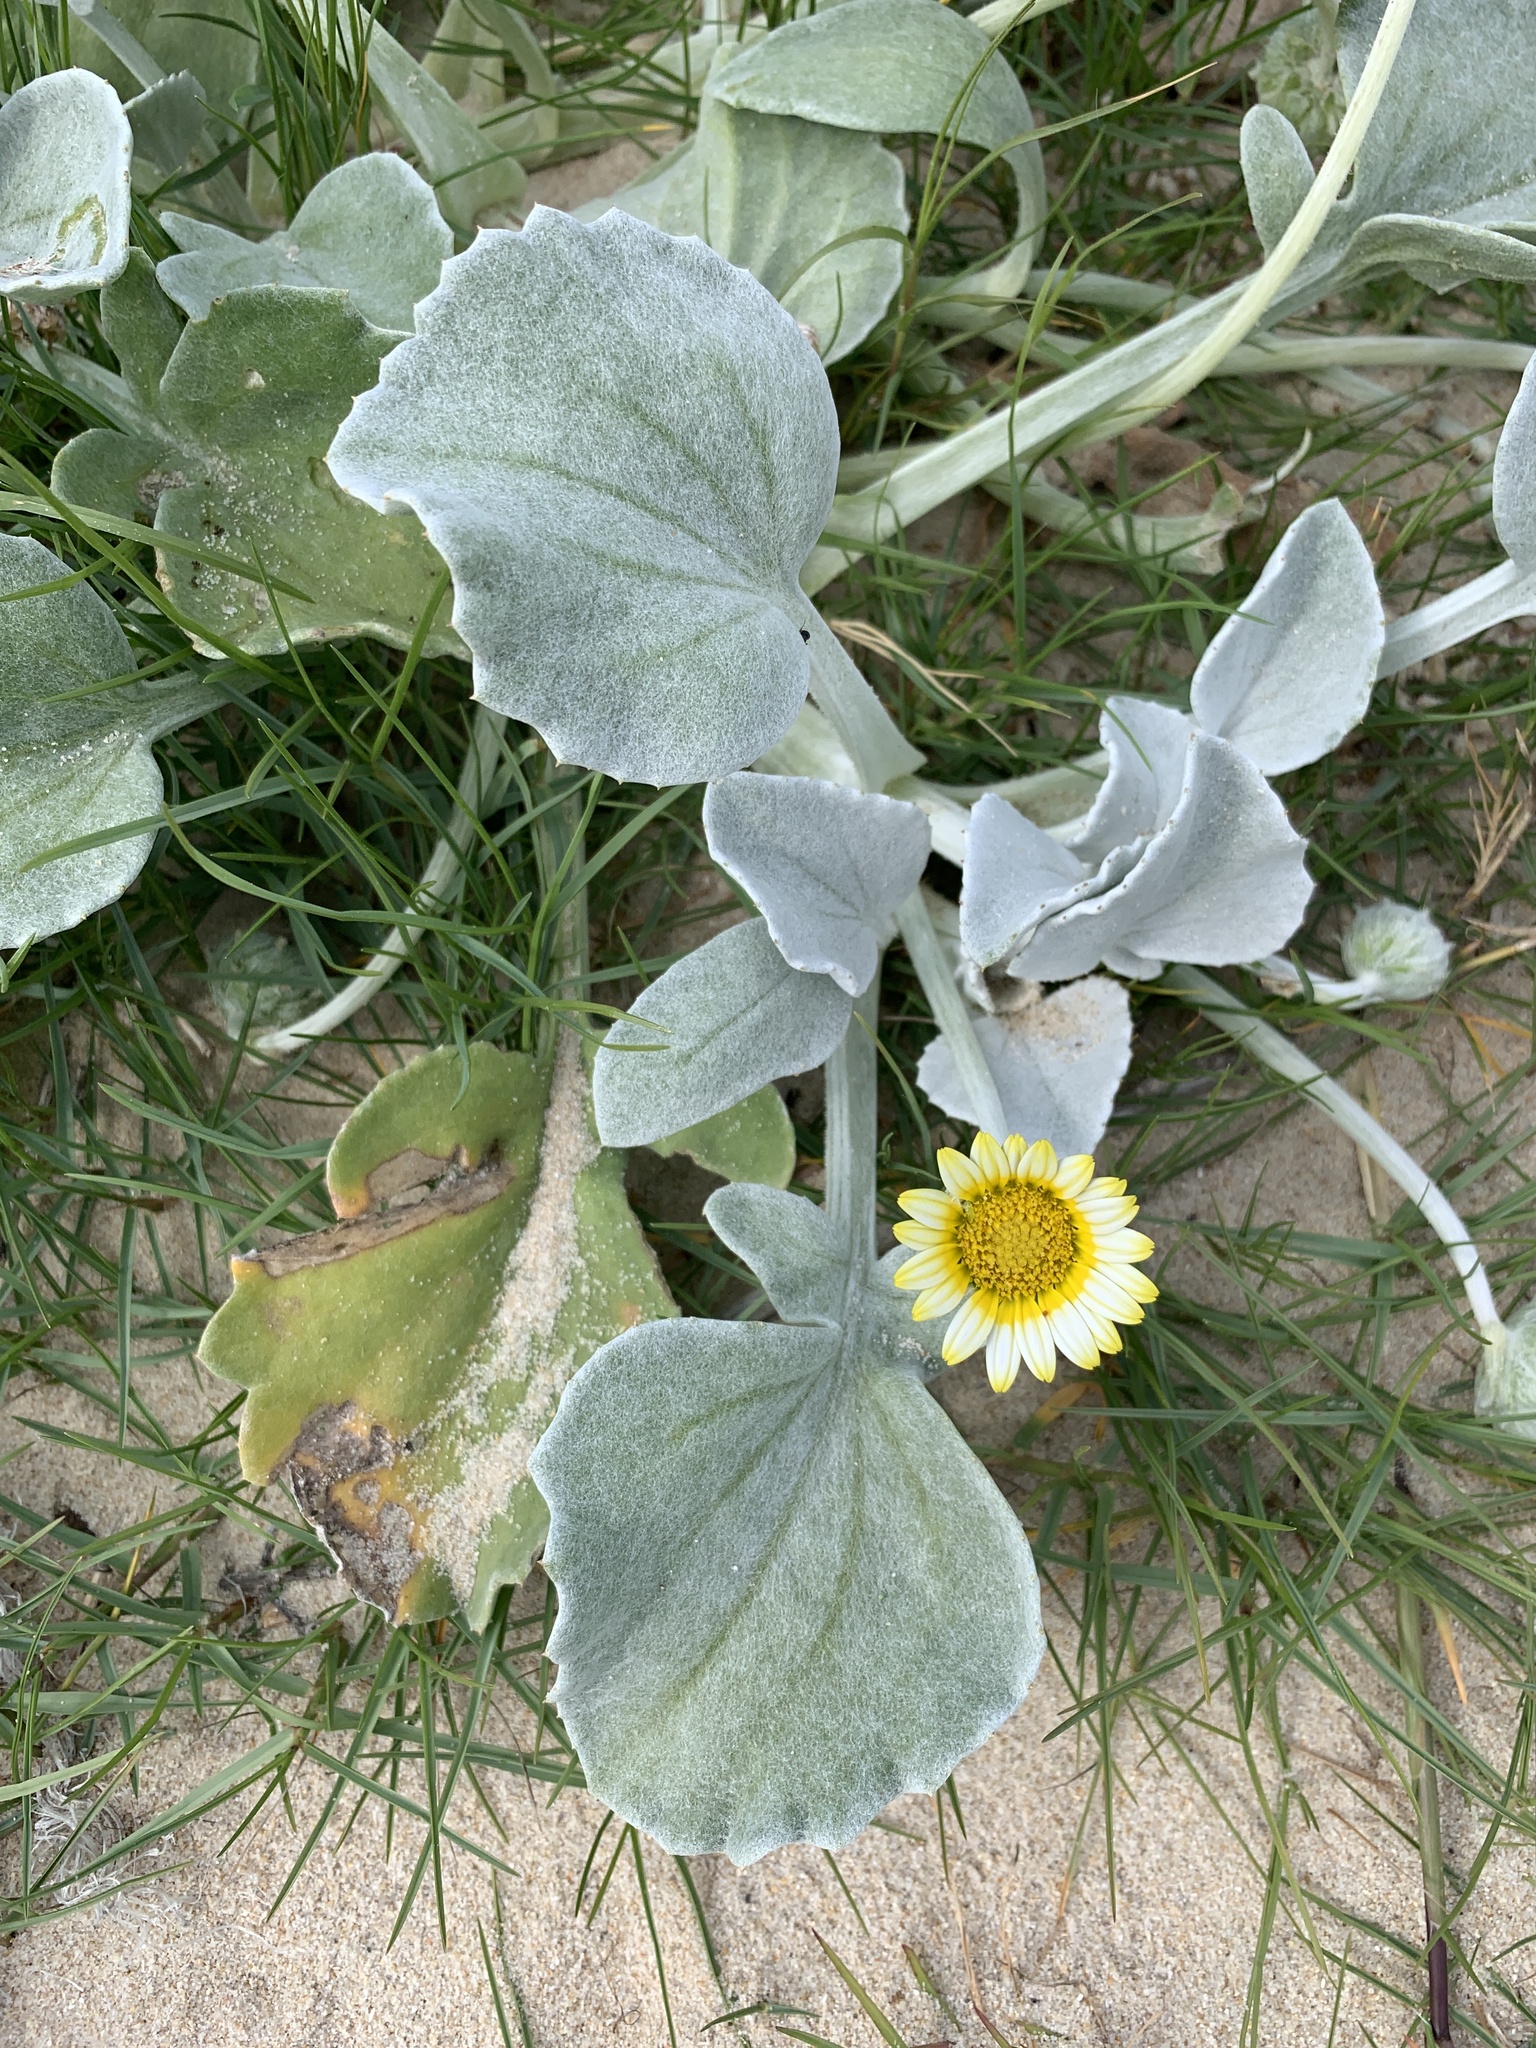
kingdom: Plantae
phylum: Tracheophyta
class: Magnoliopsida
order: Asterales
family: Asteraceae
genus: Arctotheca
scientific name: Arctotheca populifolia
